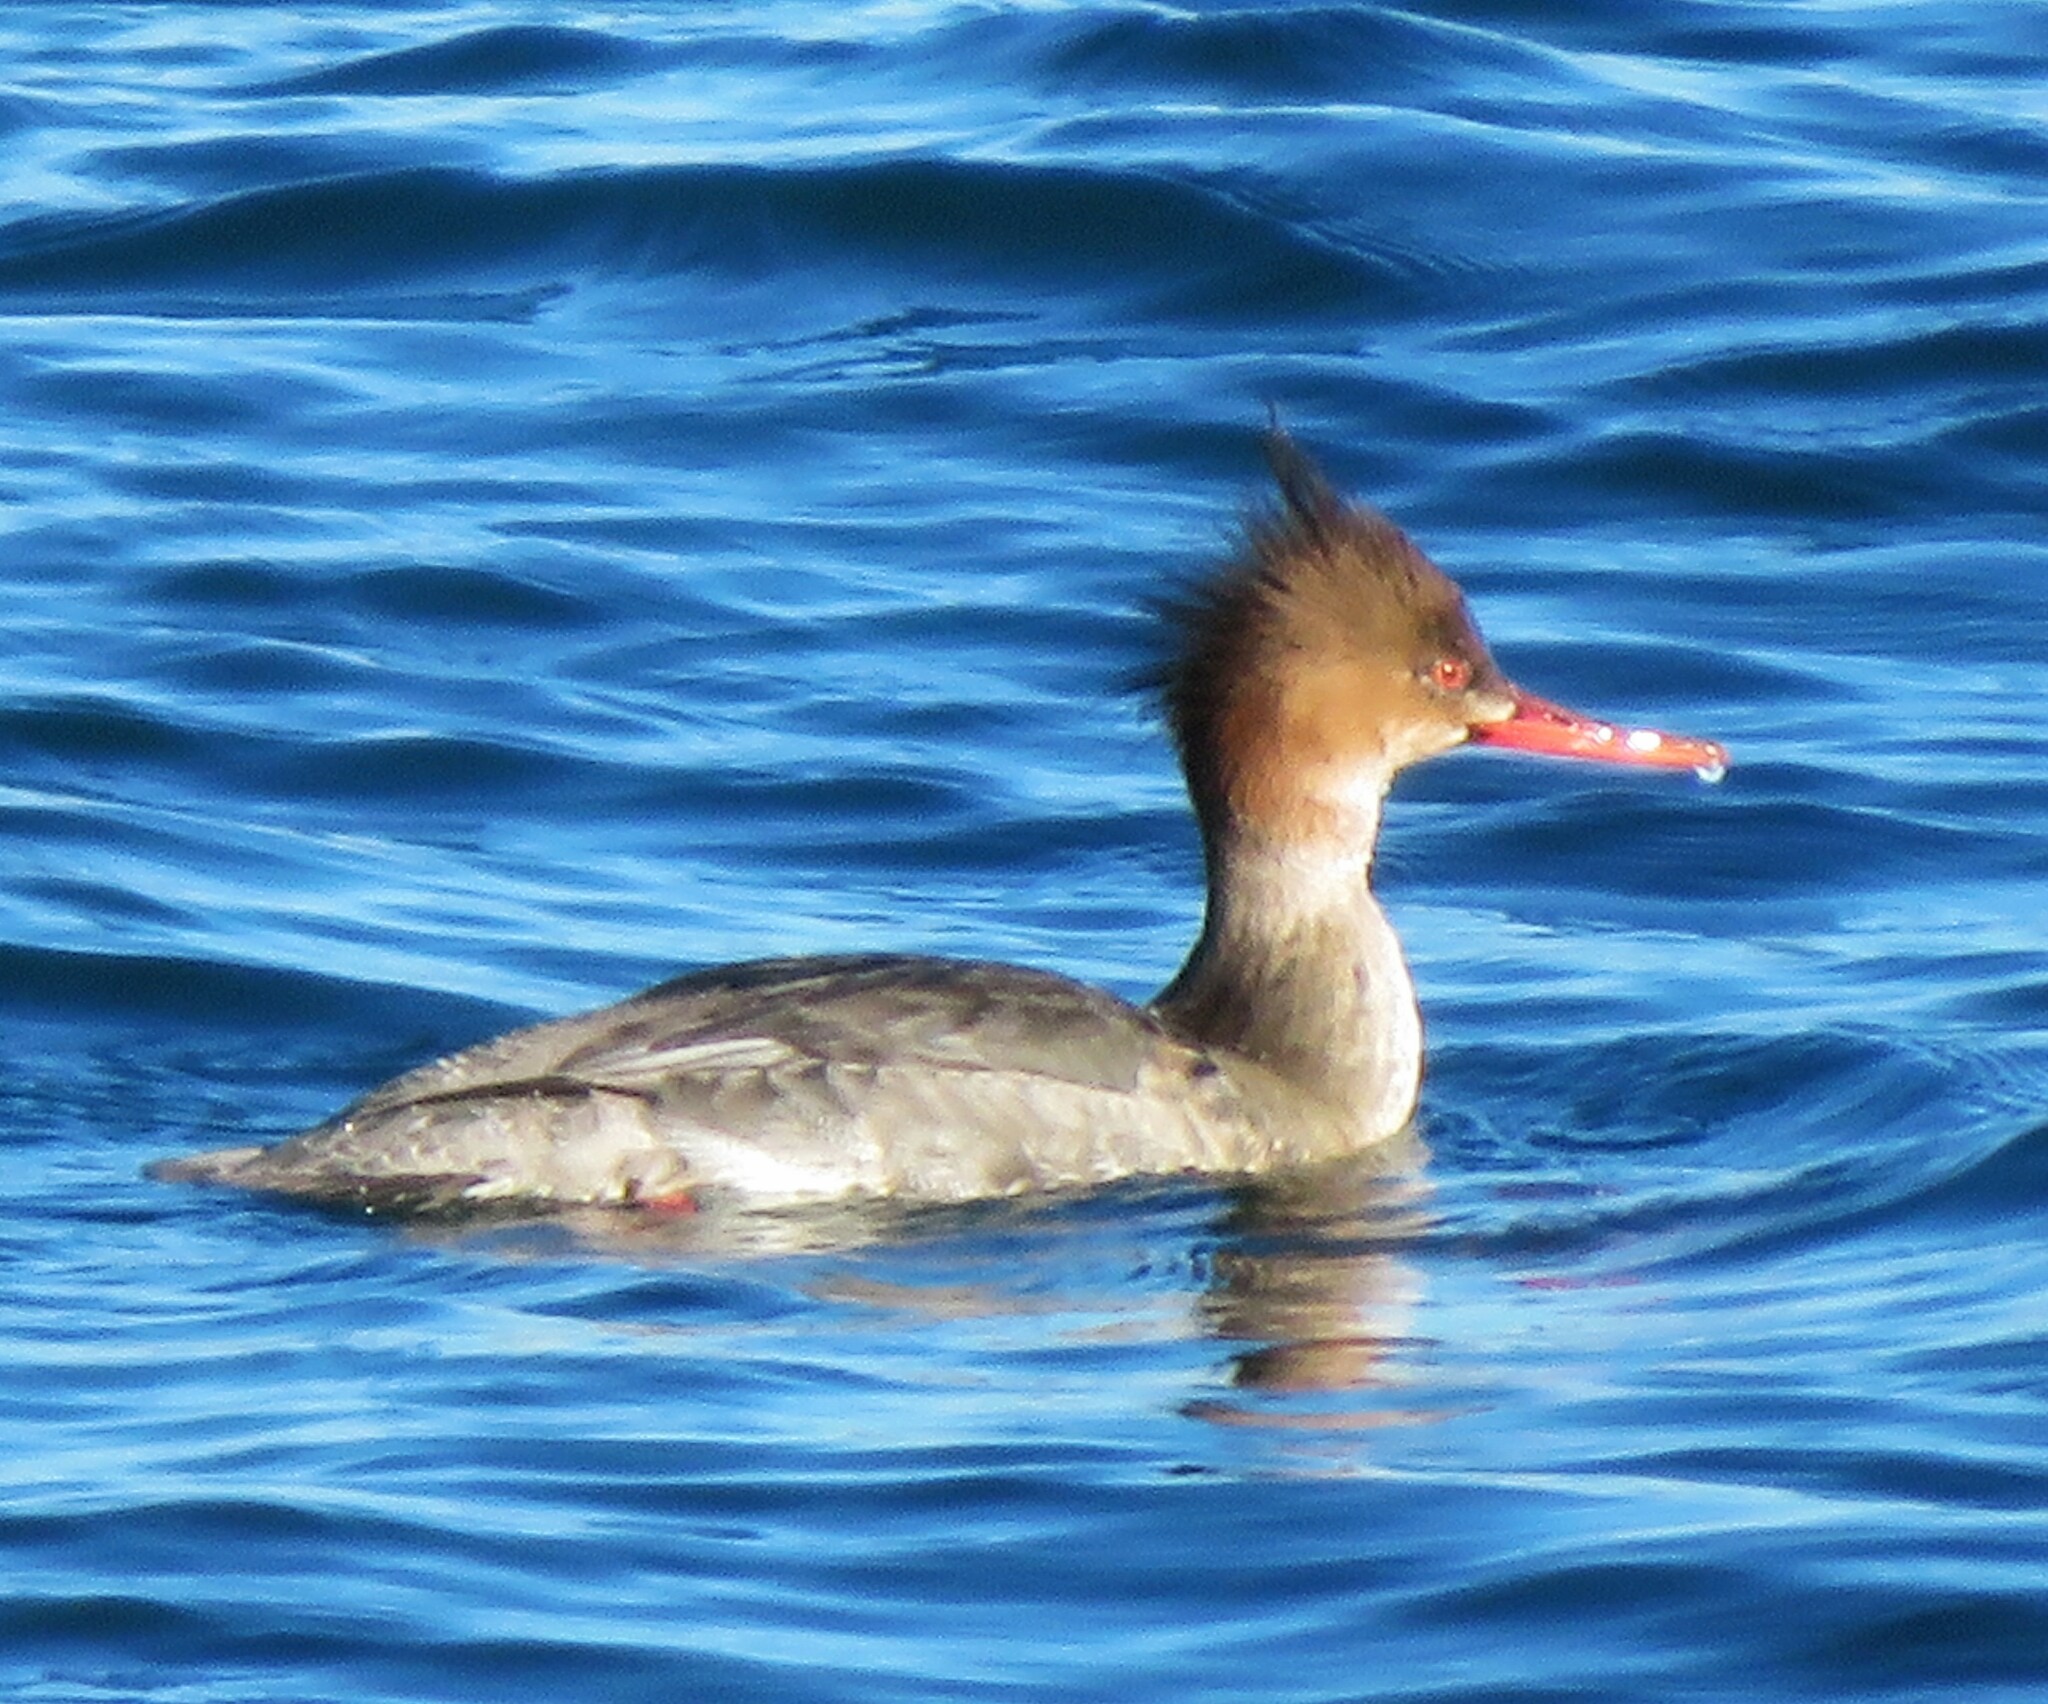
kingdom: Animalia
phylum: Chordata
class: Aves
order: Anseriformes
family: Anatidae
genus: Mergus
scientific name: Mergus serrator
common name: Red-breasted merganser
